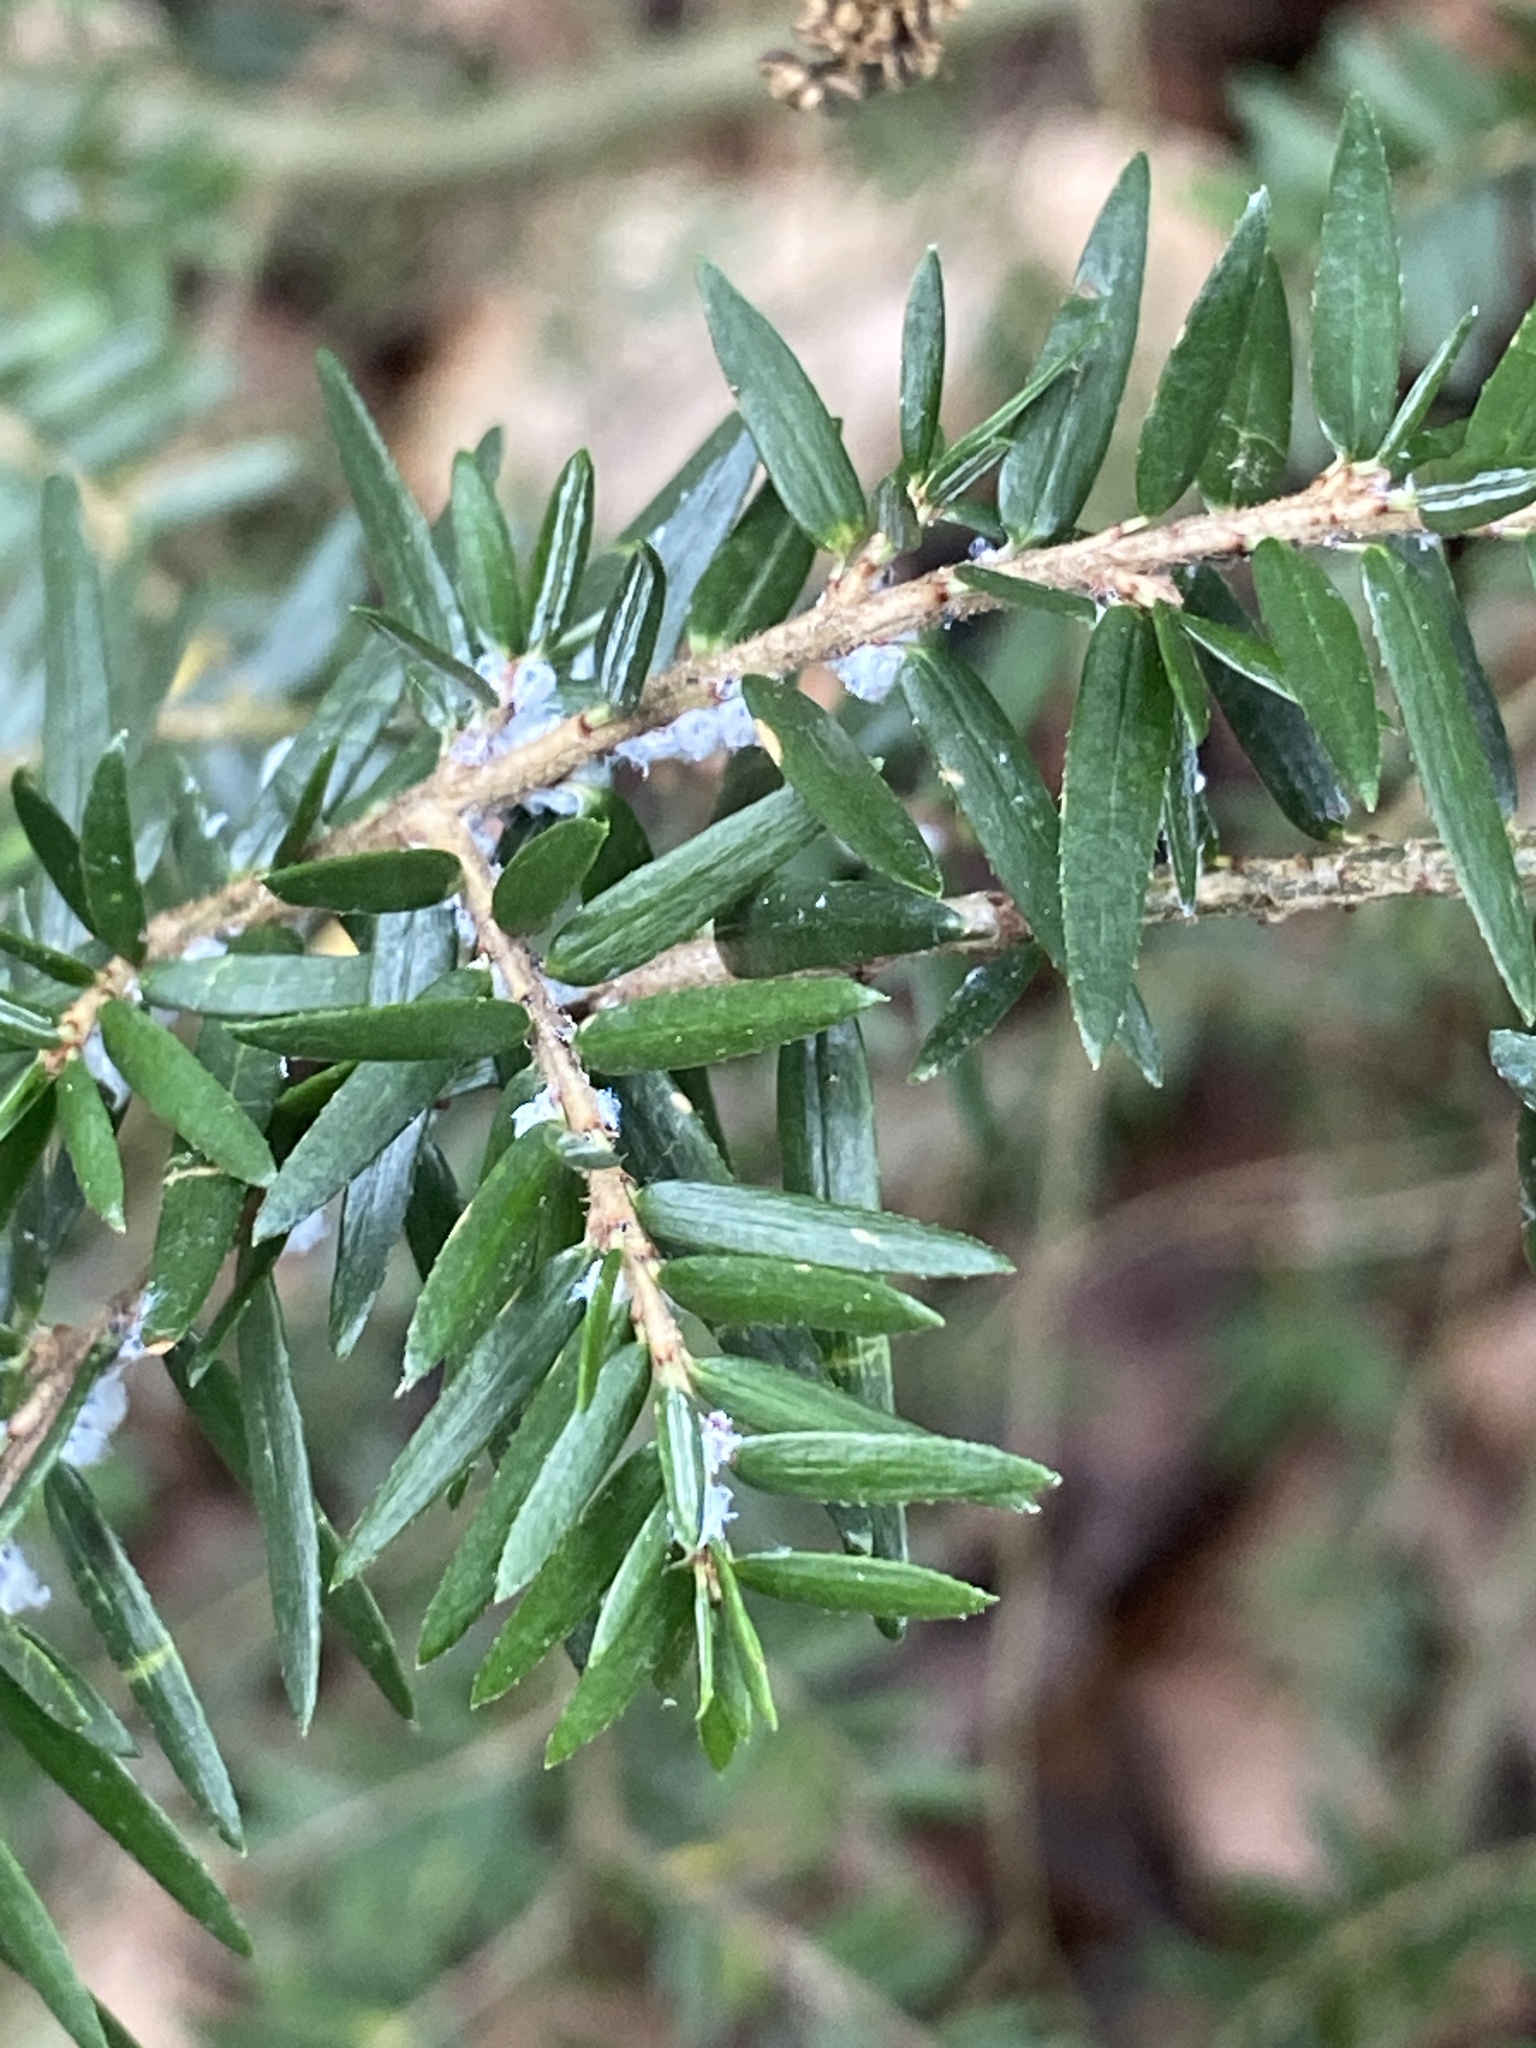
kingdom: Animalia
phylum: Arthropoda
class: Insecta
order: Hemiptera
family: Adelgidae
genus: Adelges
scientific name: Adelges tsugae
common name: Hemlock woolly adelgid
